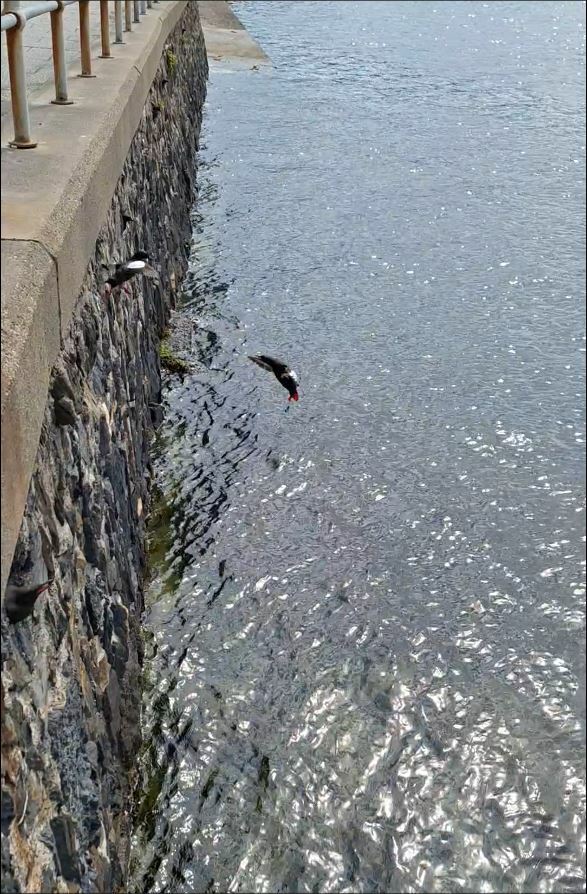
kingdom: Animalia
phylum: Chordata
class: Aves
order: Charadriiformes
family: Alcidae
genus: Cepphus
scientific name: Cepphus grylle
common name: Black guillemot
